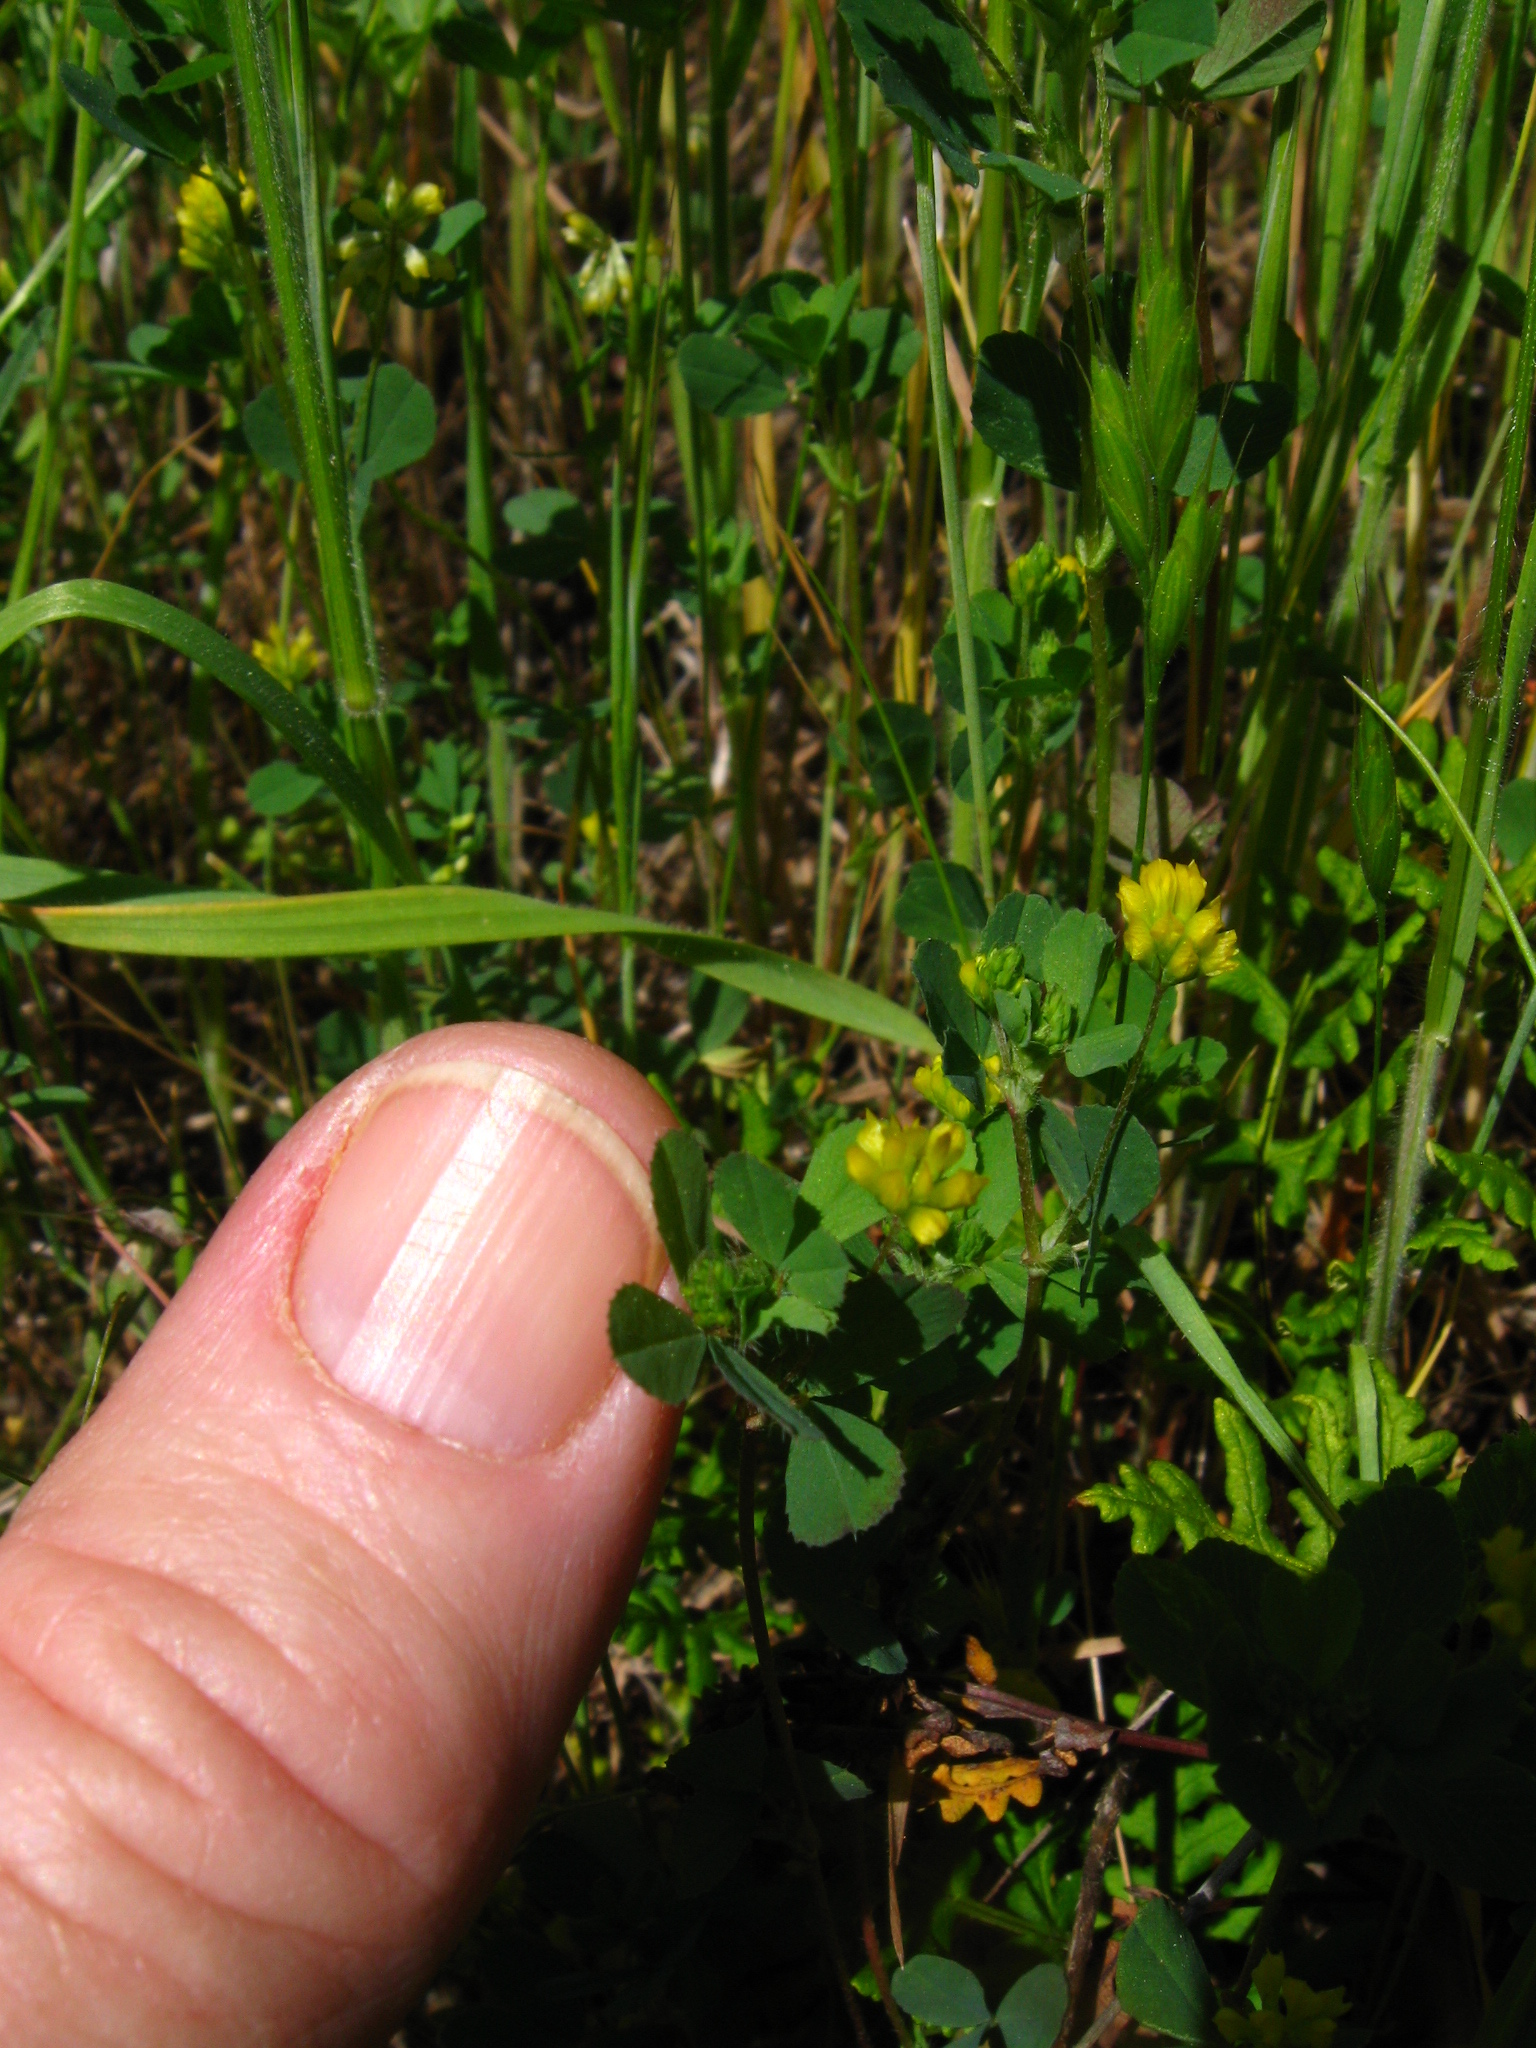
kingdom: Plantae
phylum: Tracheophyta
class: Magnoliopsida
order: Fabales
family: Fabaceae
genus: Trifolium
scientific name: Trifolium dubium
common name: Suckling clover
